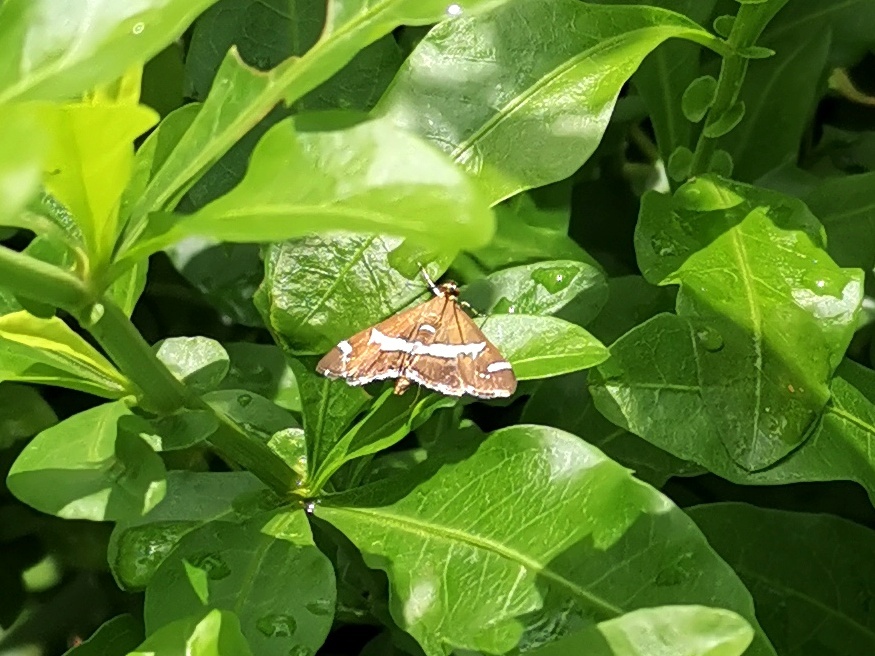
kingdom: Animalia
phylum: Arthropoda
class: Insecta
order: Lepidoptera
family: Crambidae
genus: Spoladea
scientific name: Spoladea recurvalis
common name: Beet webworm moth
